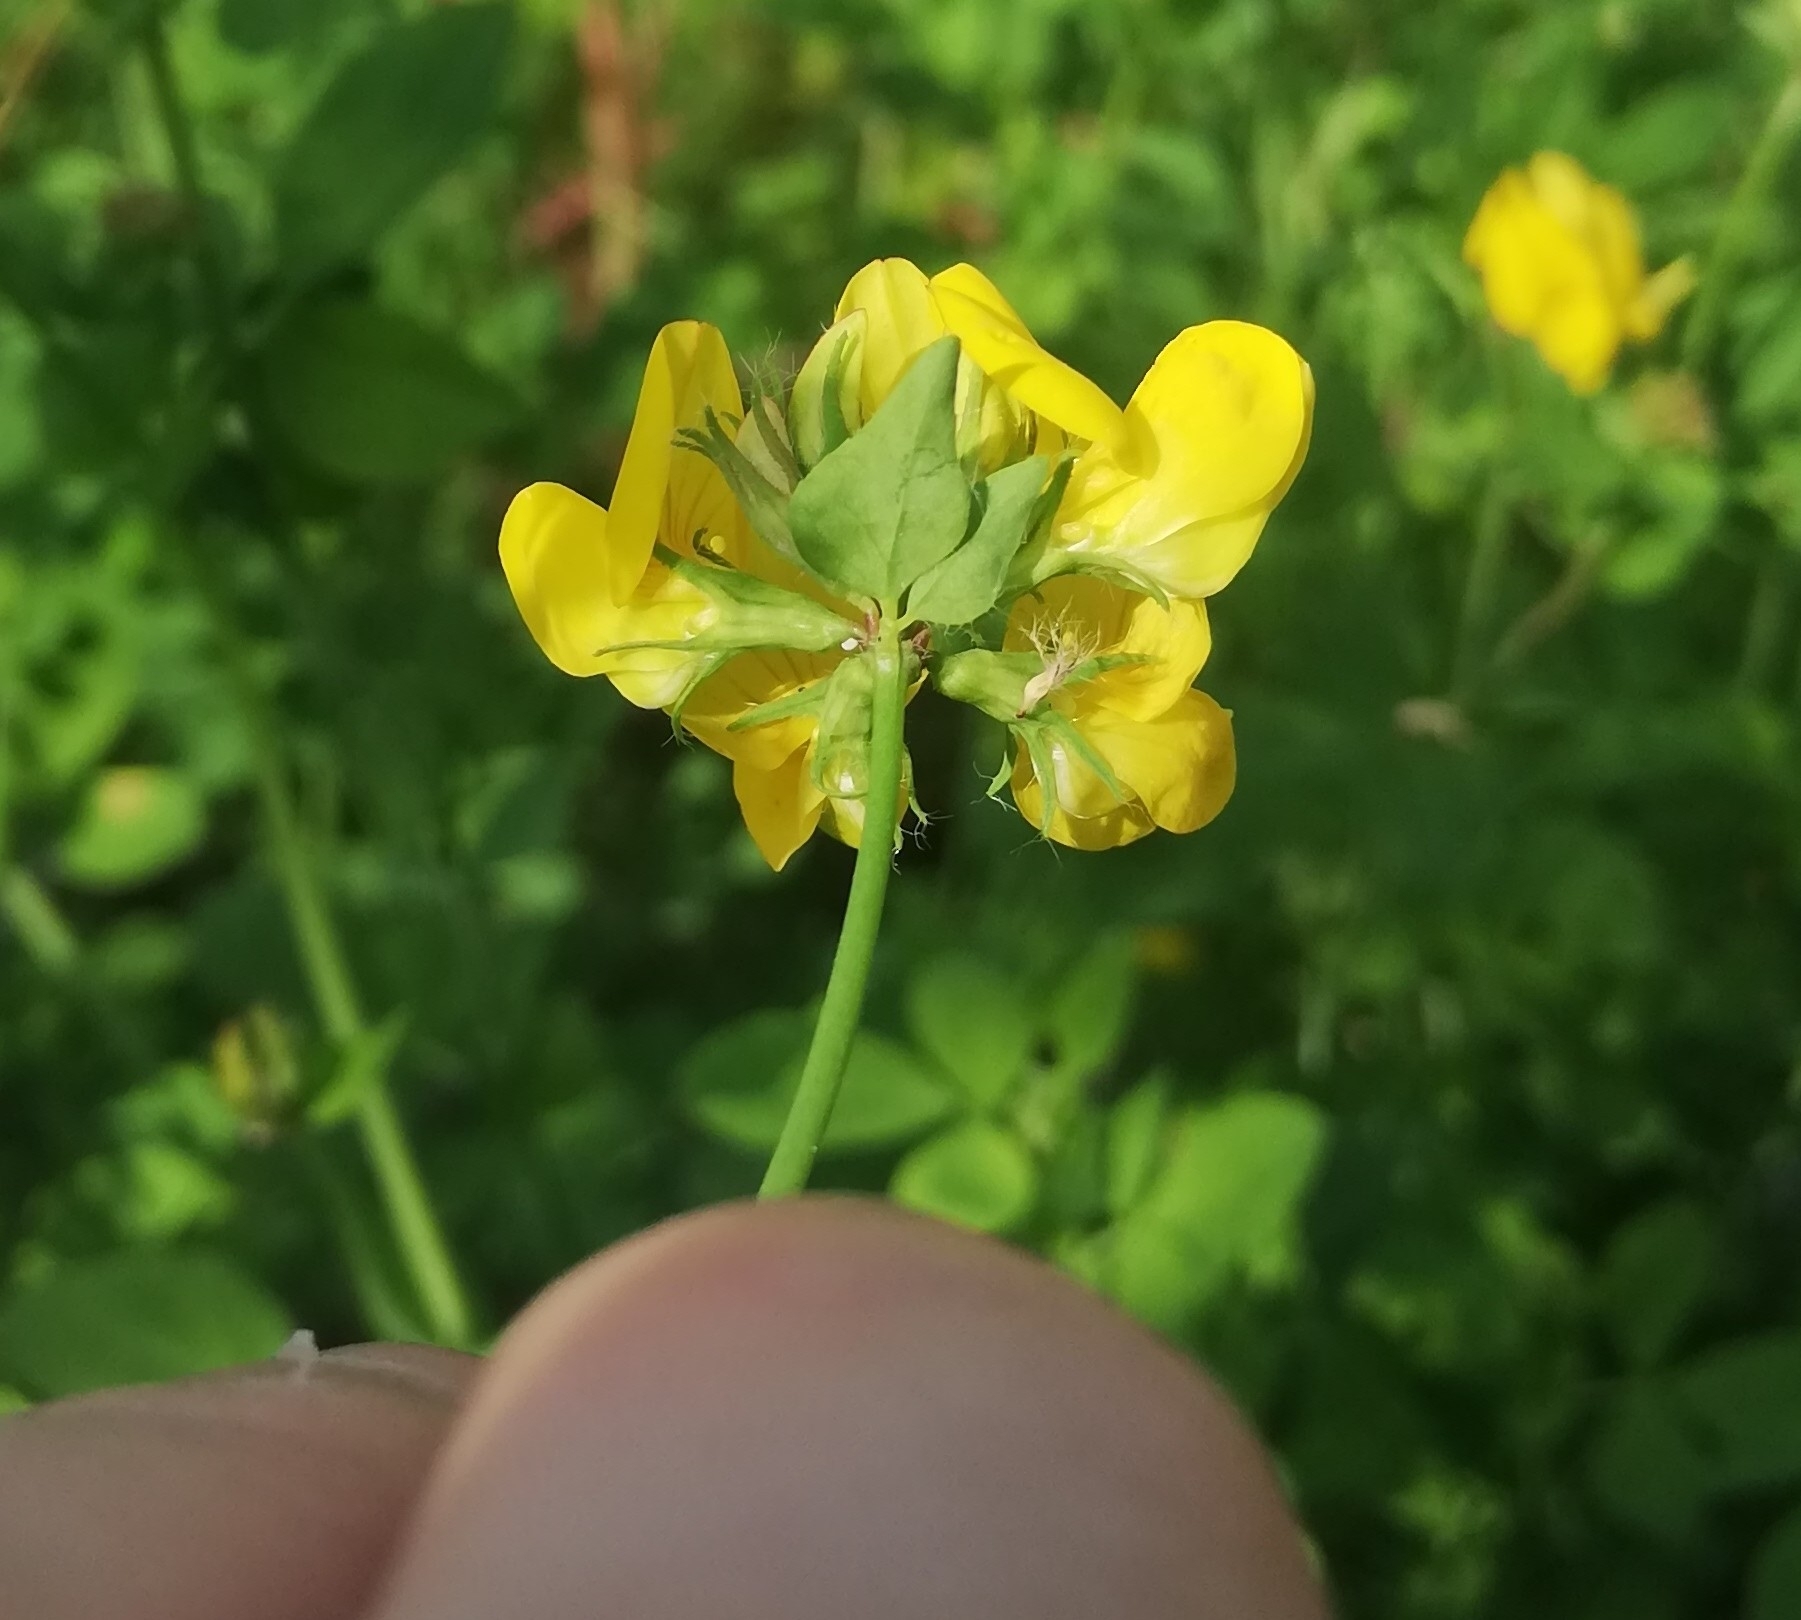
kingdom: Plantae
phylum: Tracheophyta
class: Magnoliopsida
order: Fabales
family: Fabaceae
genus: Lotus
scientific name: Lotus pedunculatus
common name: Greater birdsfoot-trefoil
